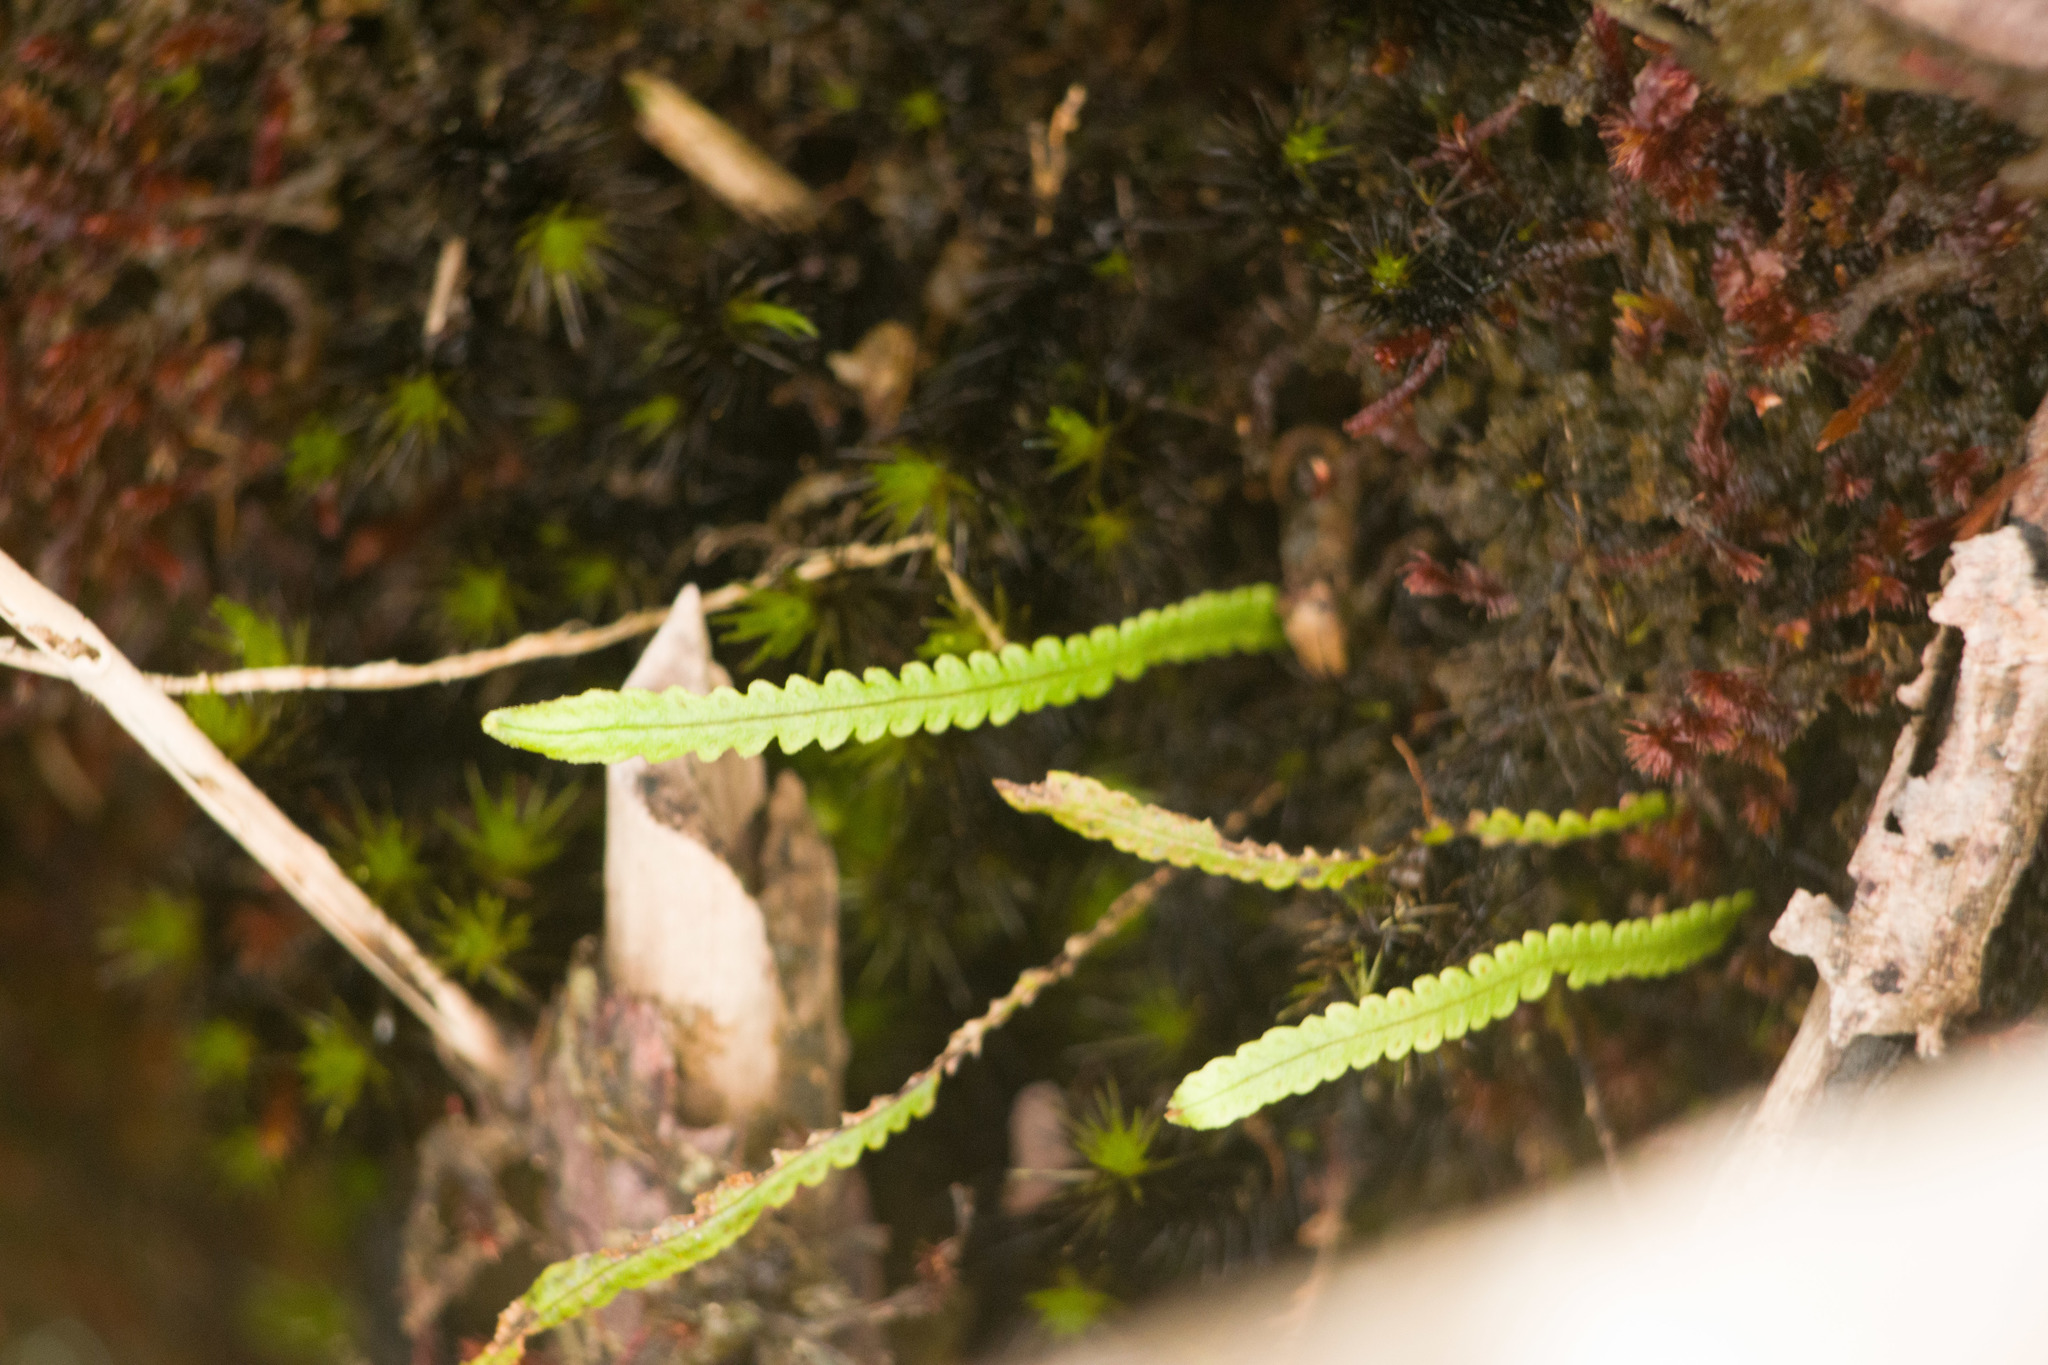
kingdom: Plantae
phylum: Tracheophyta
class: Polypodiopsida
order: Polypodiales
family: Polypodiaceae
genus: Stenogrammitis
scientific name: Stenogrammitis saffordii
